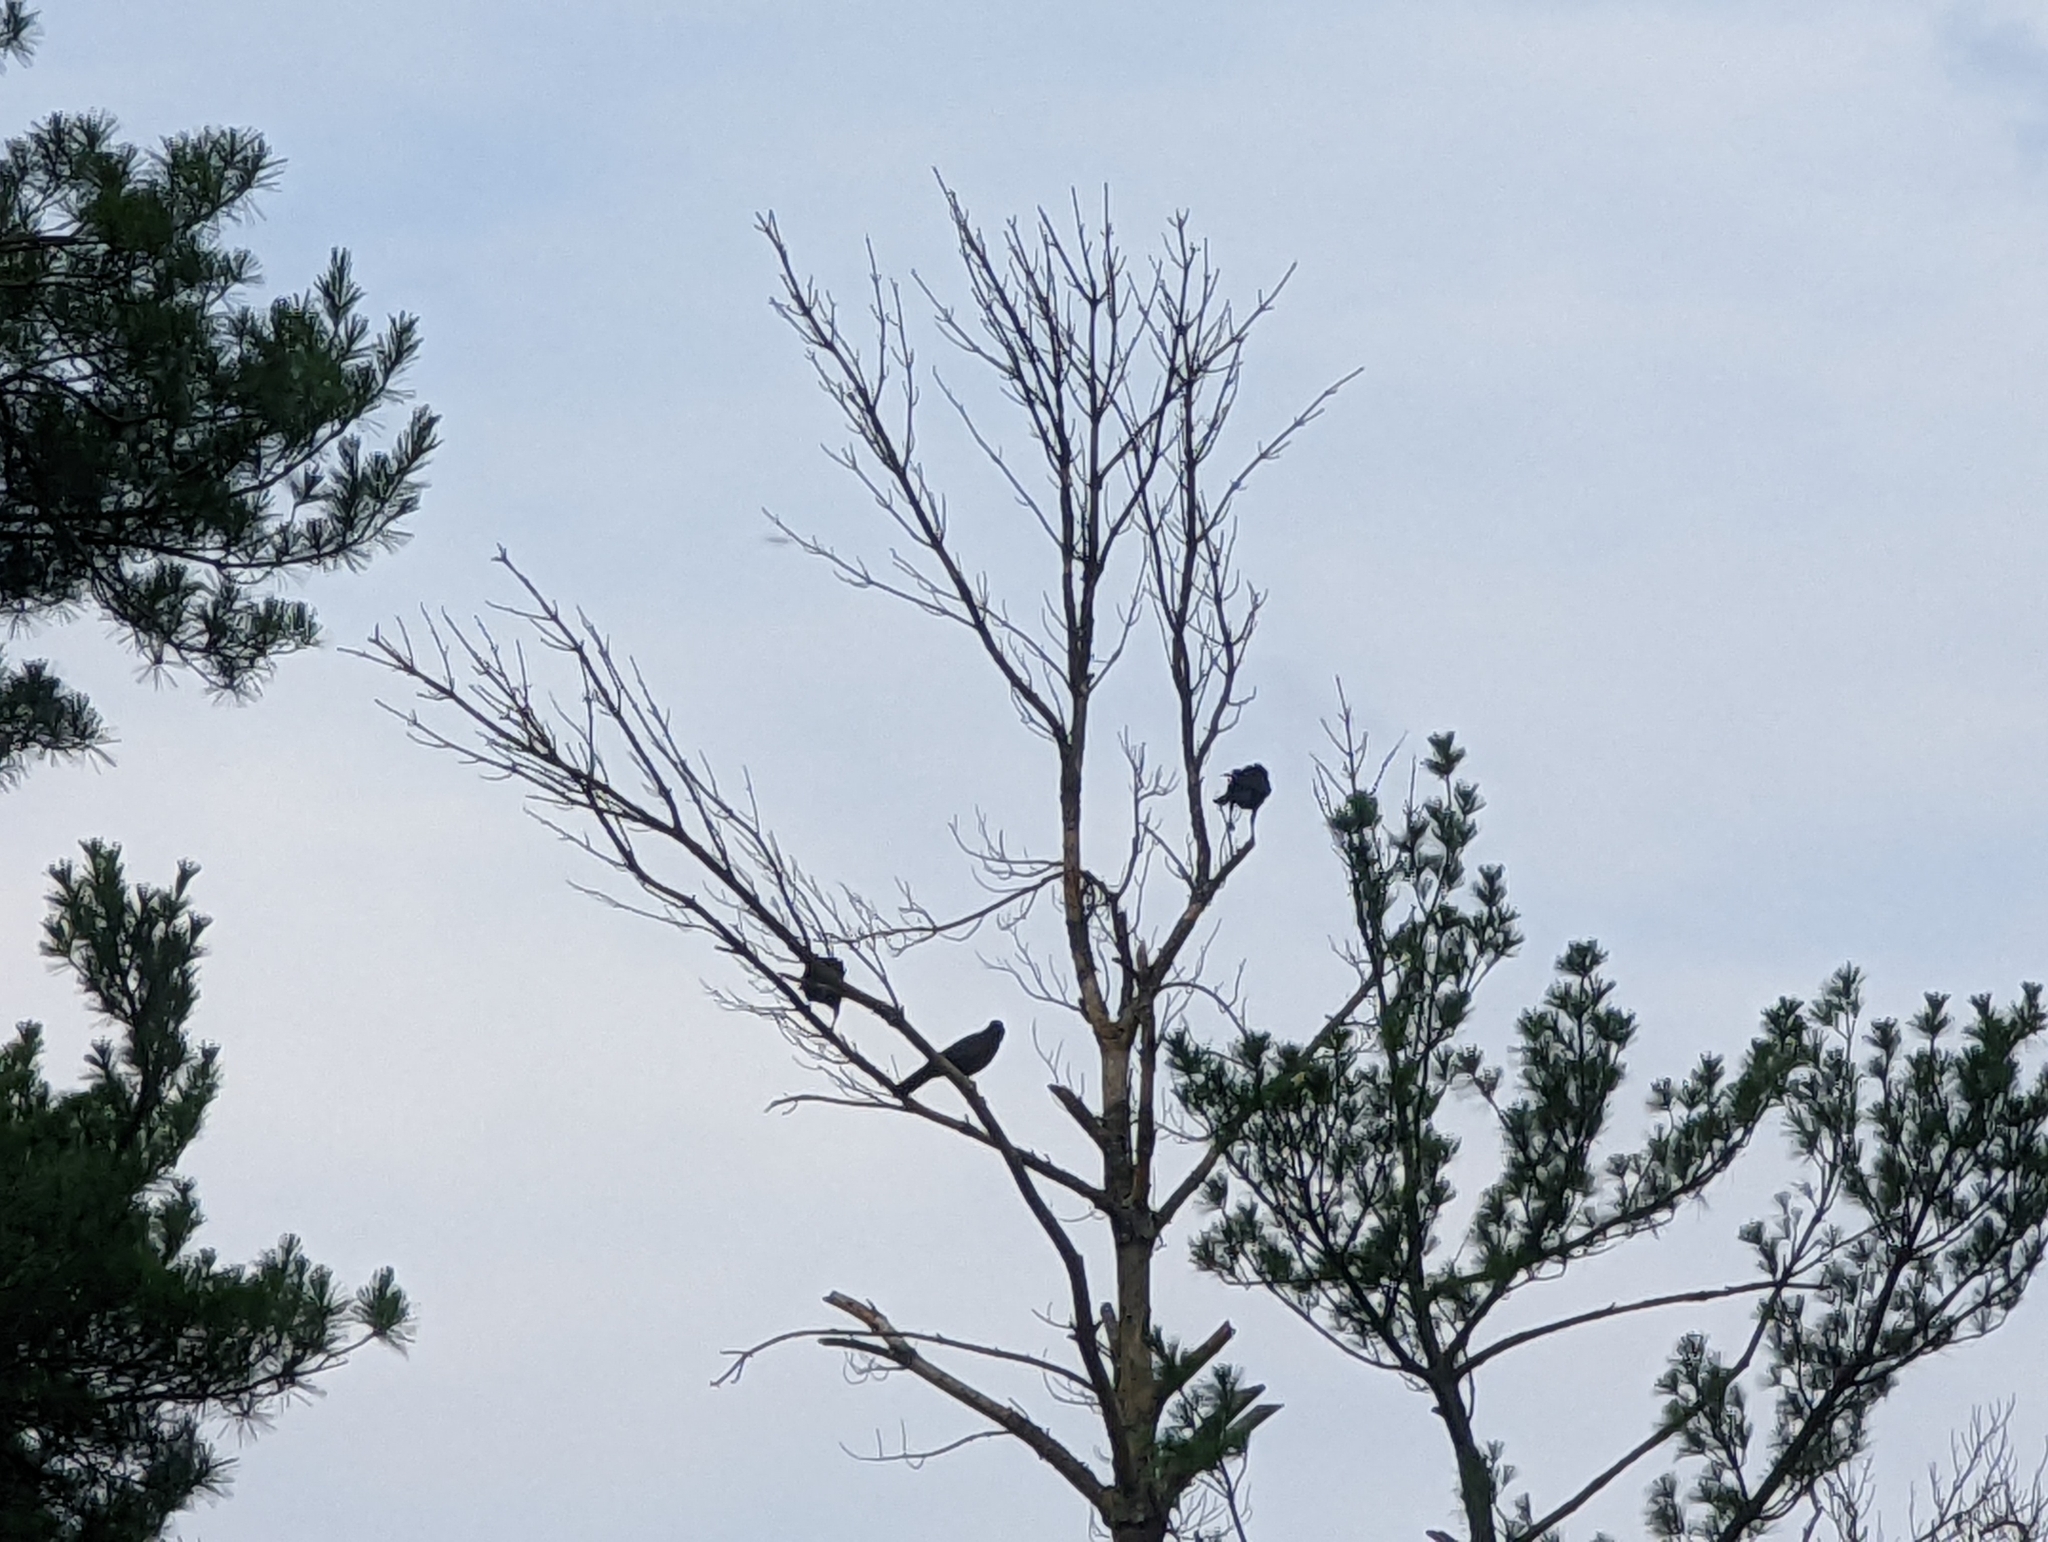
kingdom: Animalia
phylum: Chordata
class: Aves
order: Passeriformes
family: Corvidae
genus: Corvus
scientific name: Corvus brachyrhynchos
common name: American crow
